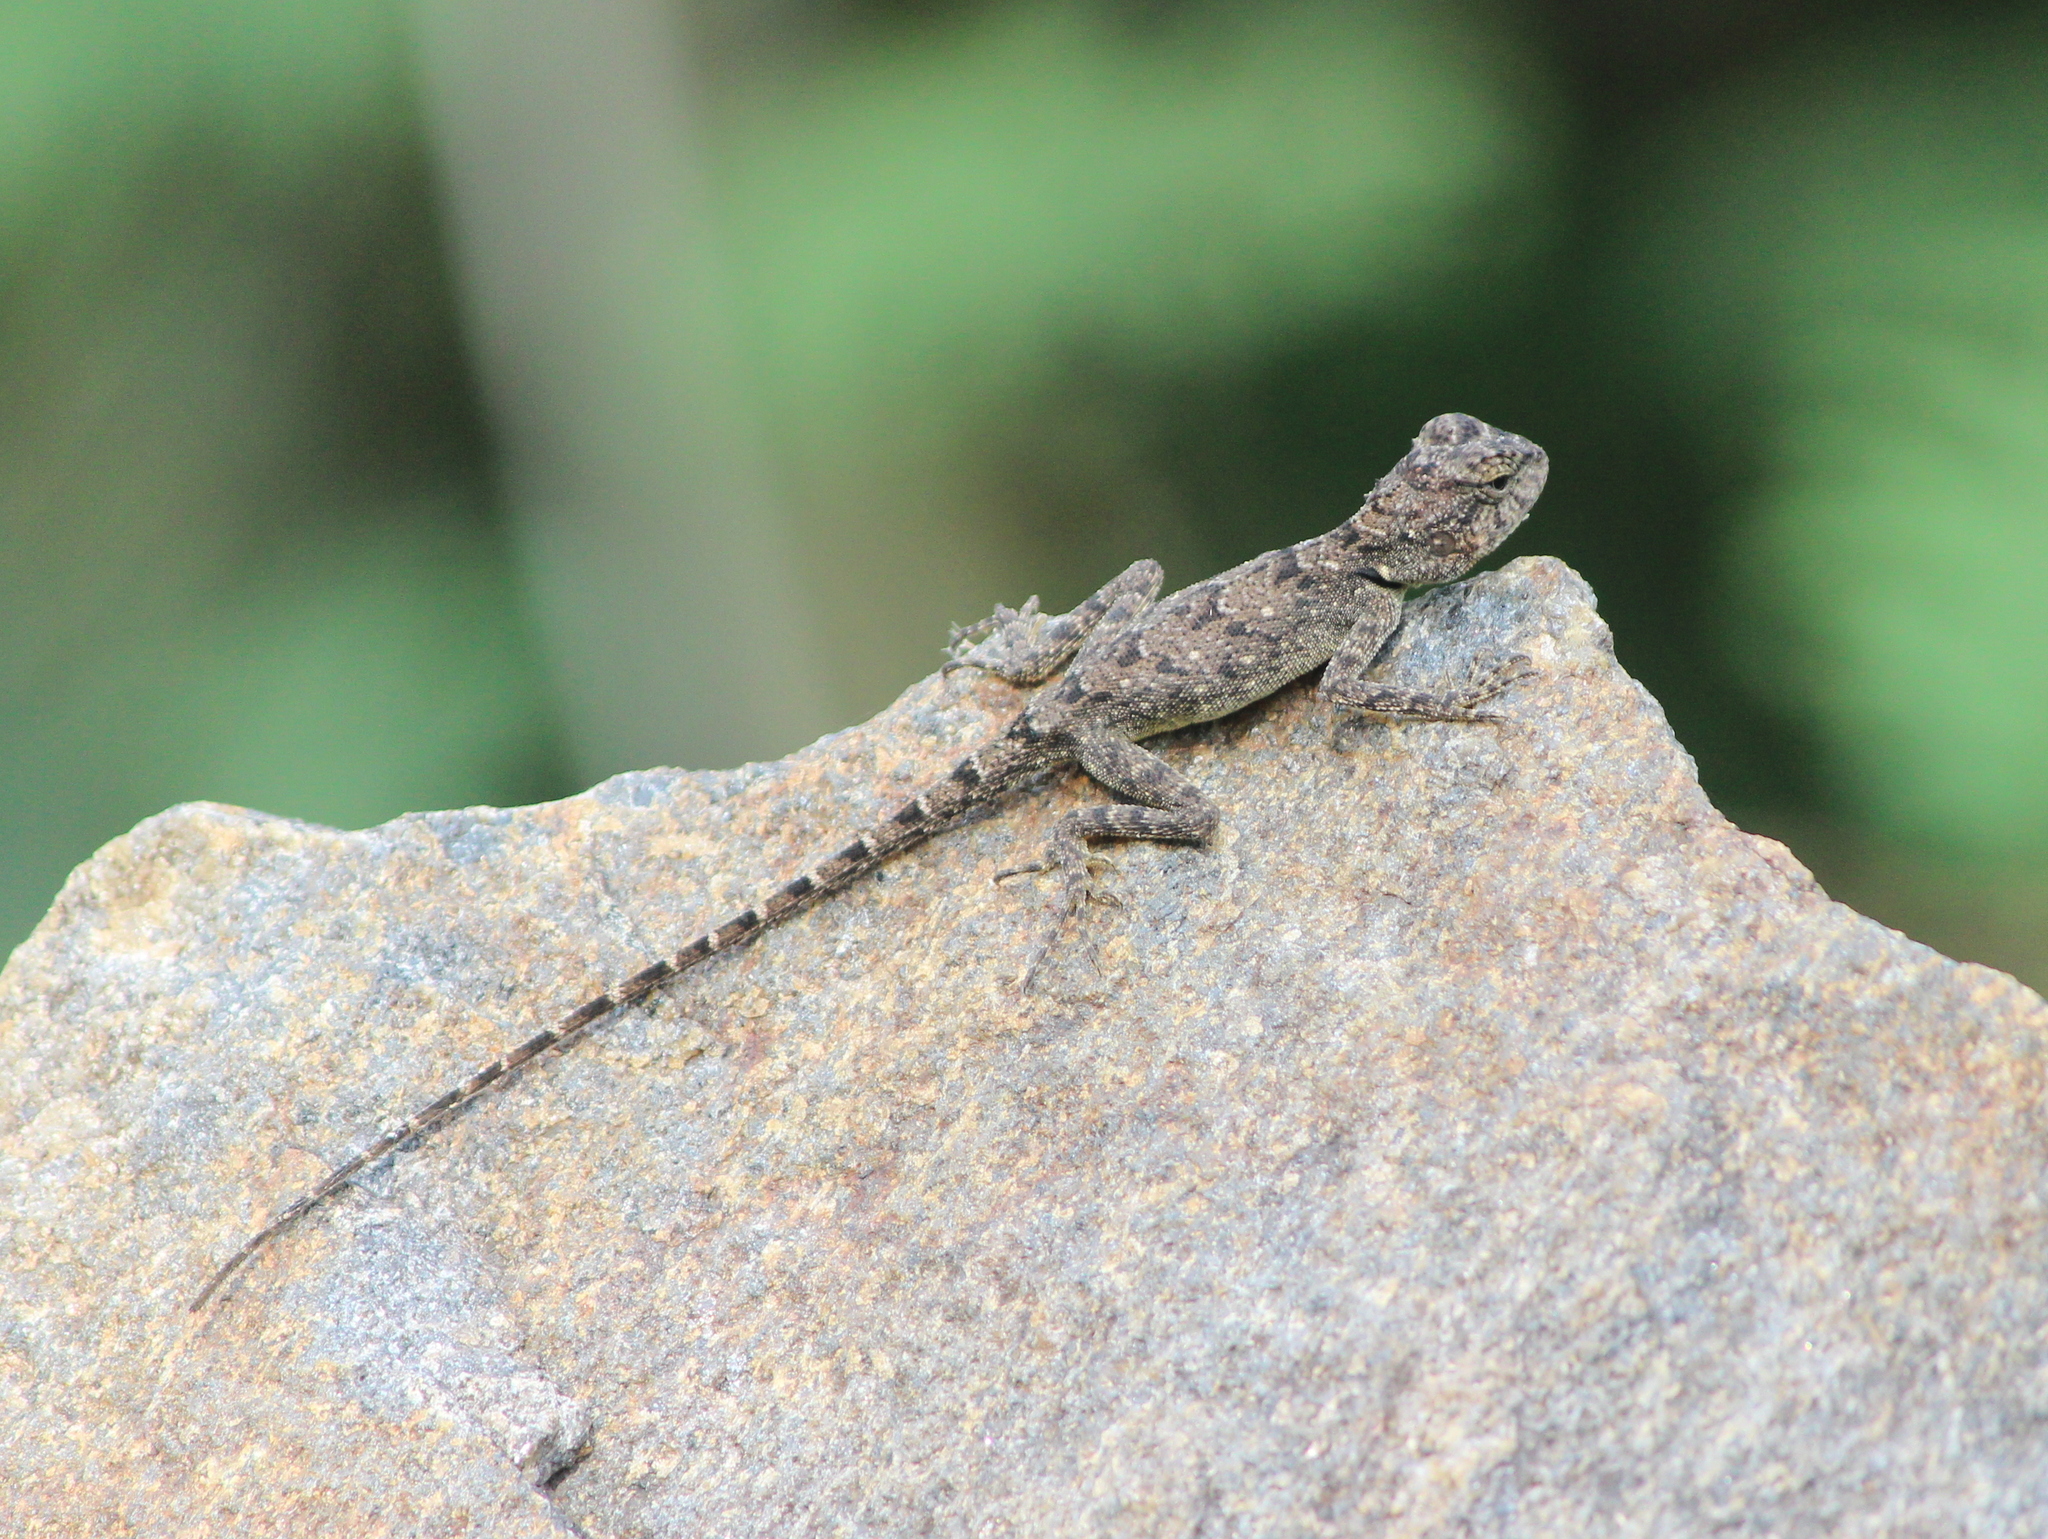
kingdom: Animalia
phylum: Chordata
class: Squamata
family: Agamidae
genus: Psammophilus
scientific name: Psammophilus dorsalis
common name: South indian rock agama
